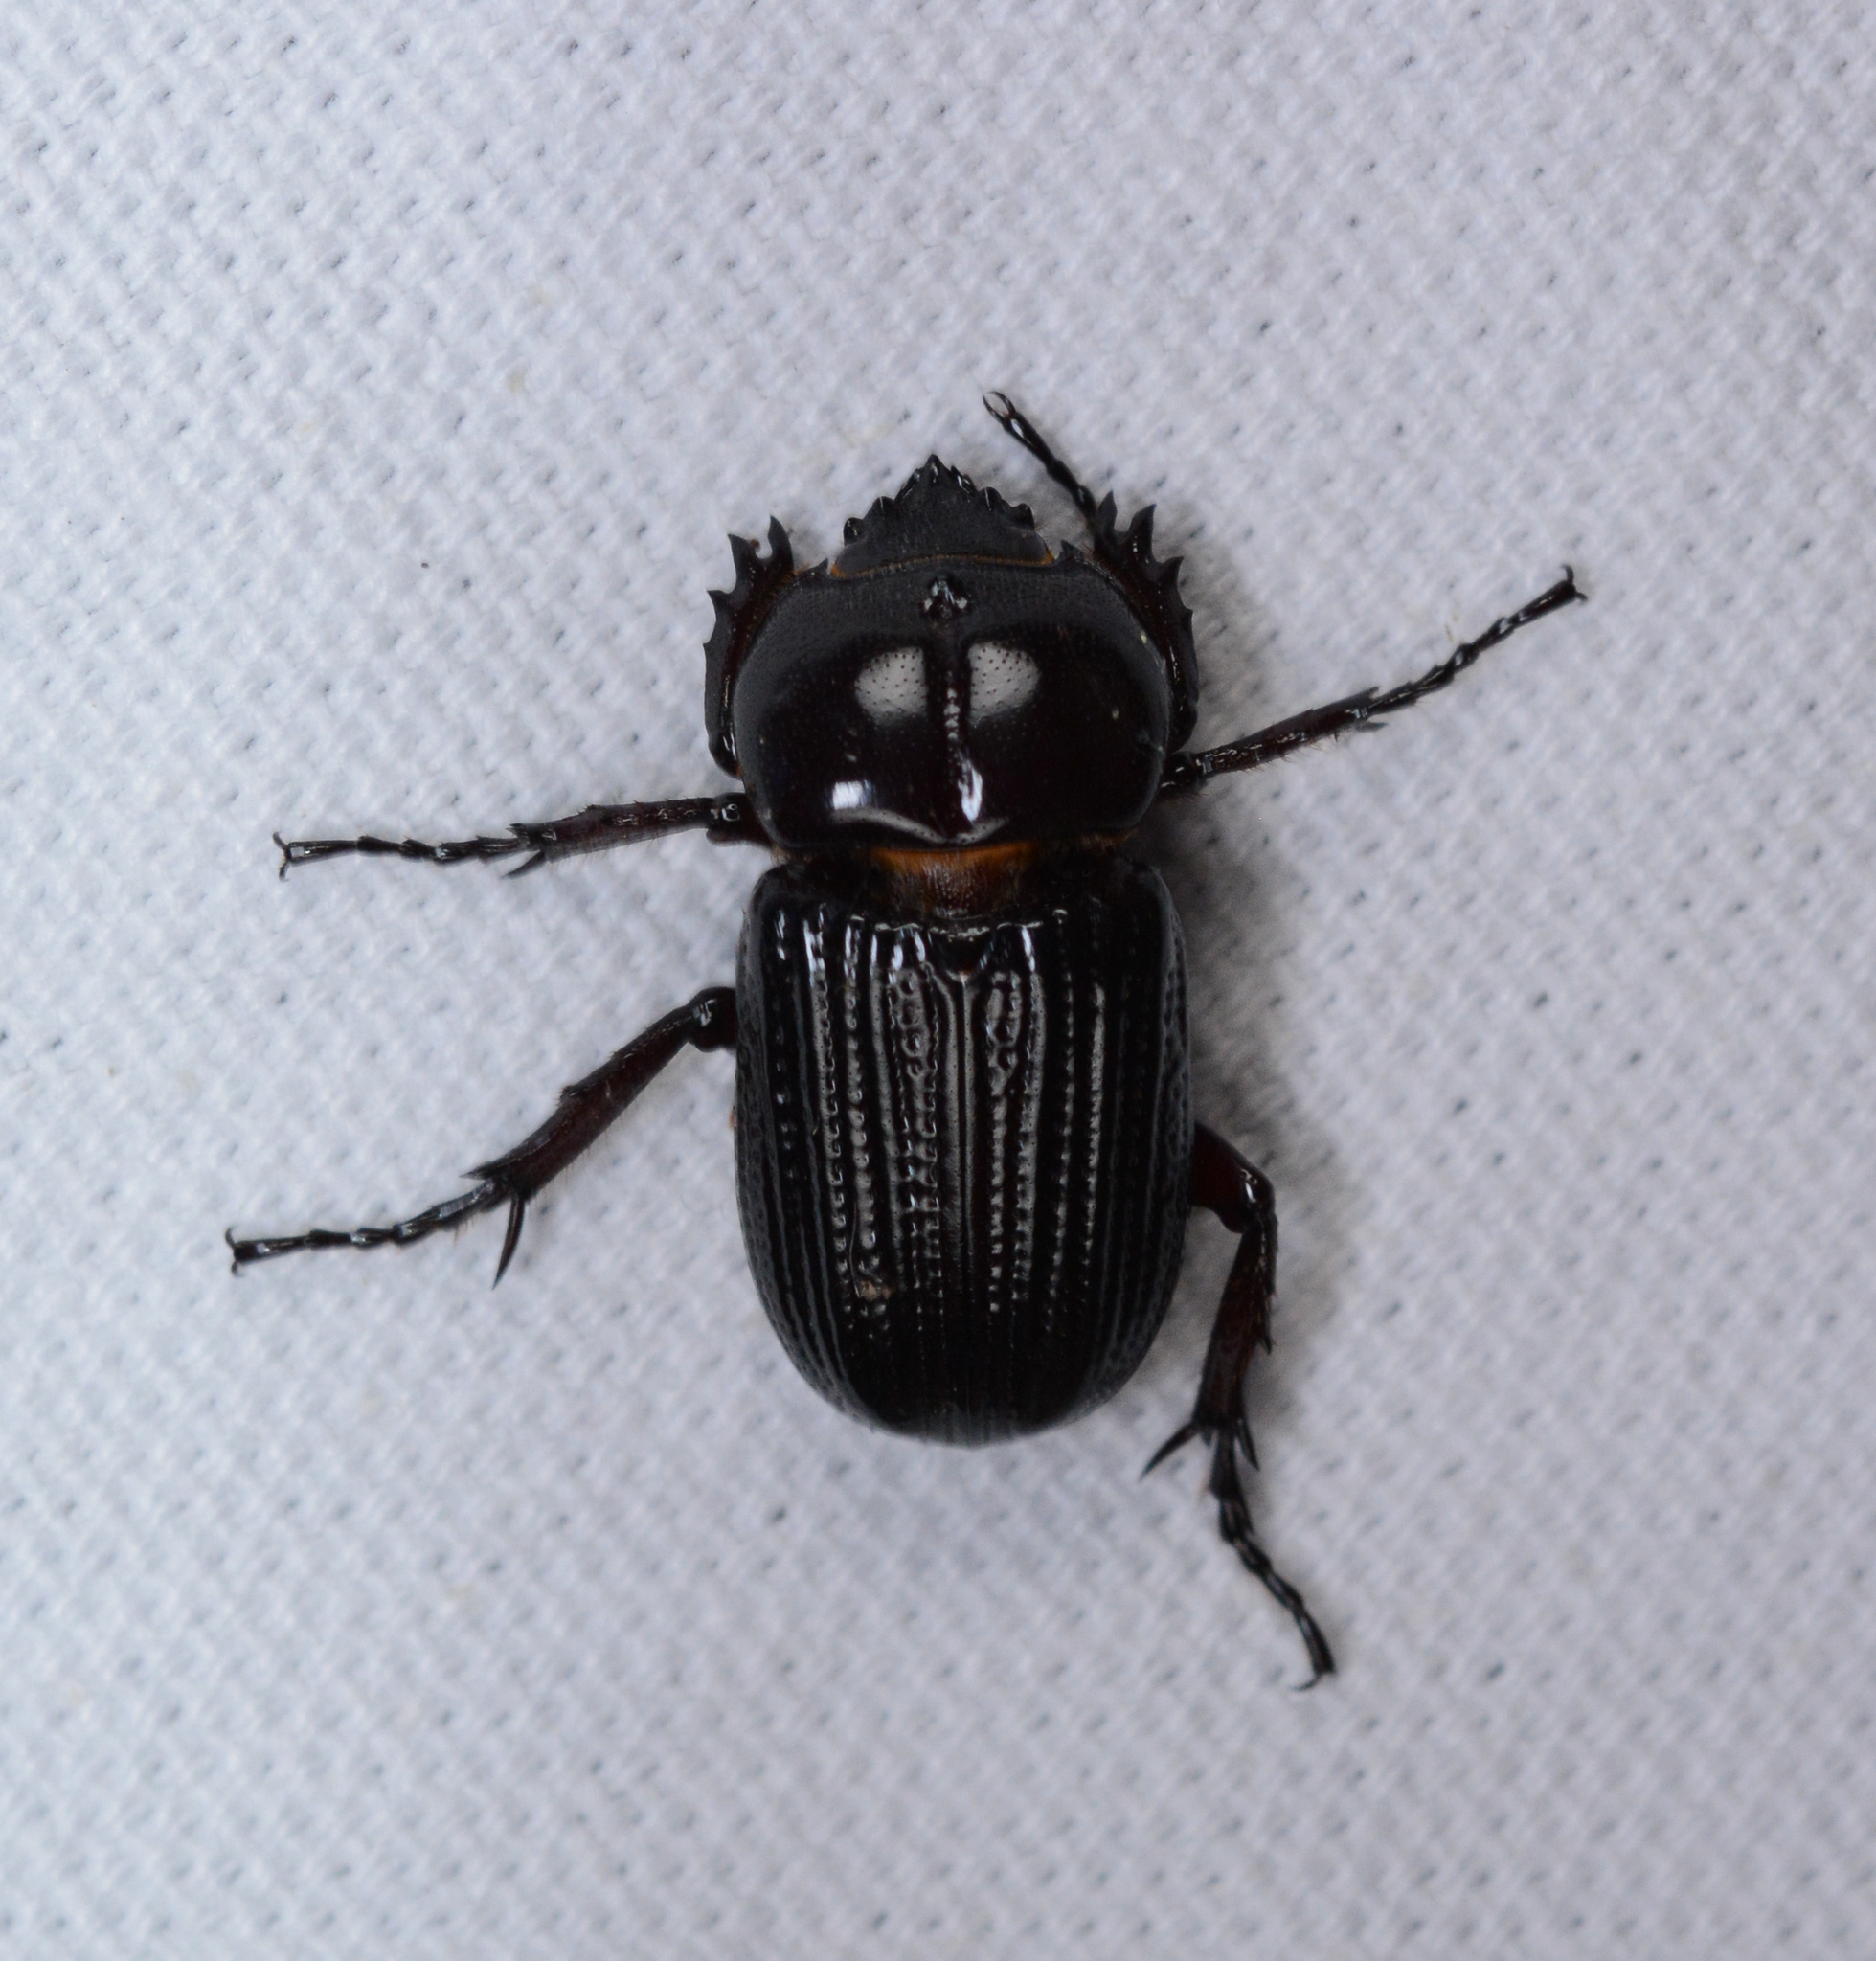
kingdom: Animalia
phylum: Arthropoda
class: Insecta
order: Coleoptera
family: Scarabaeidae
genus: Phileurus
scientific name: Phileurus valgus
